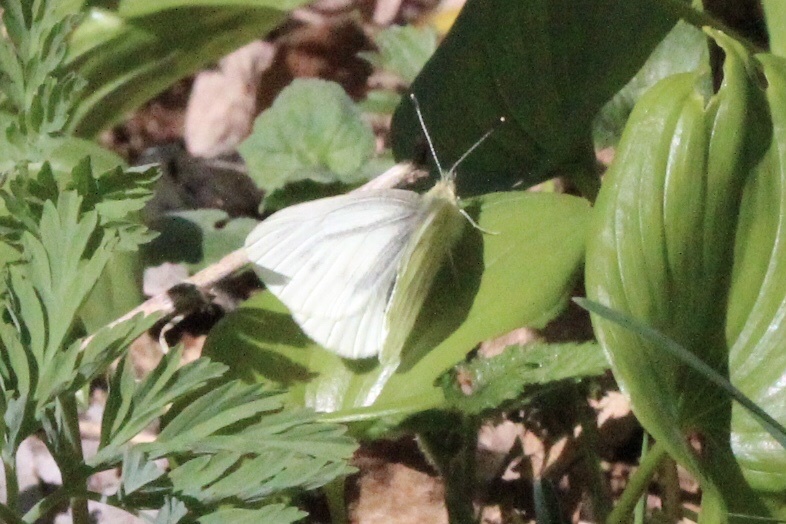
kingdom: Animalia
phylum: Arthropoda
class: Insecta
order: Lepidoptera
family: Pieridae
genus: Pieris
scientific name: Pieris marginalis
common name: Margined white
